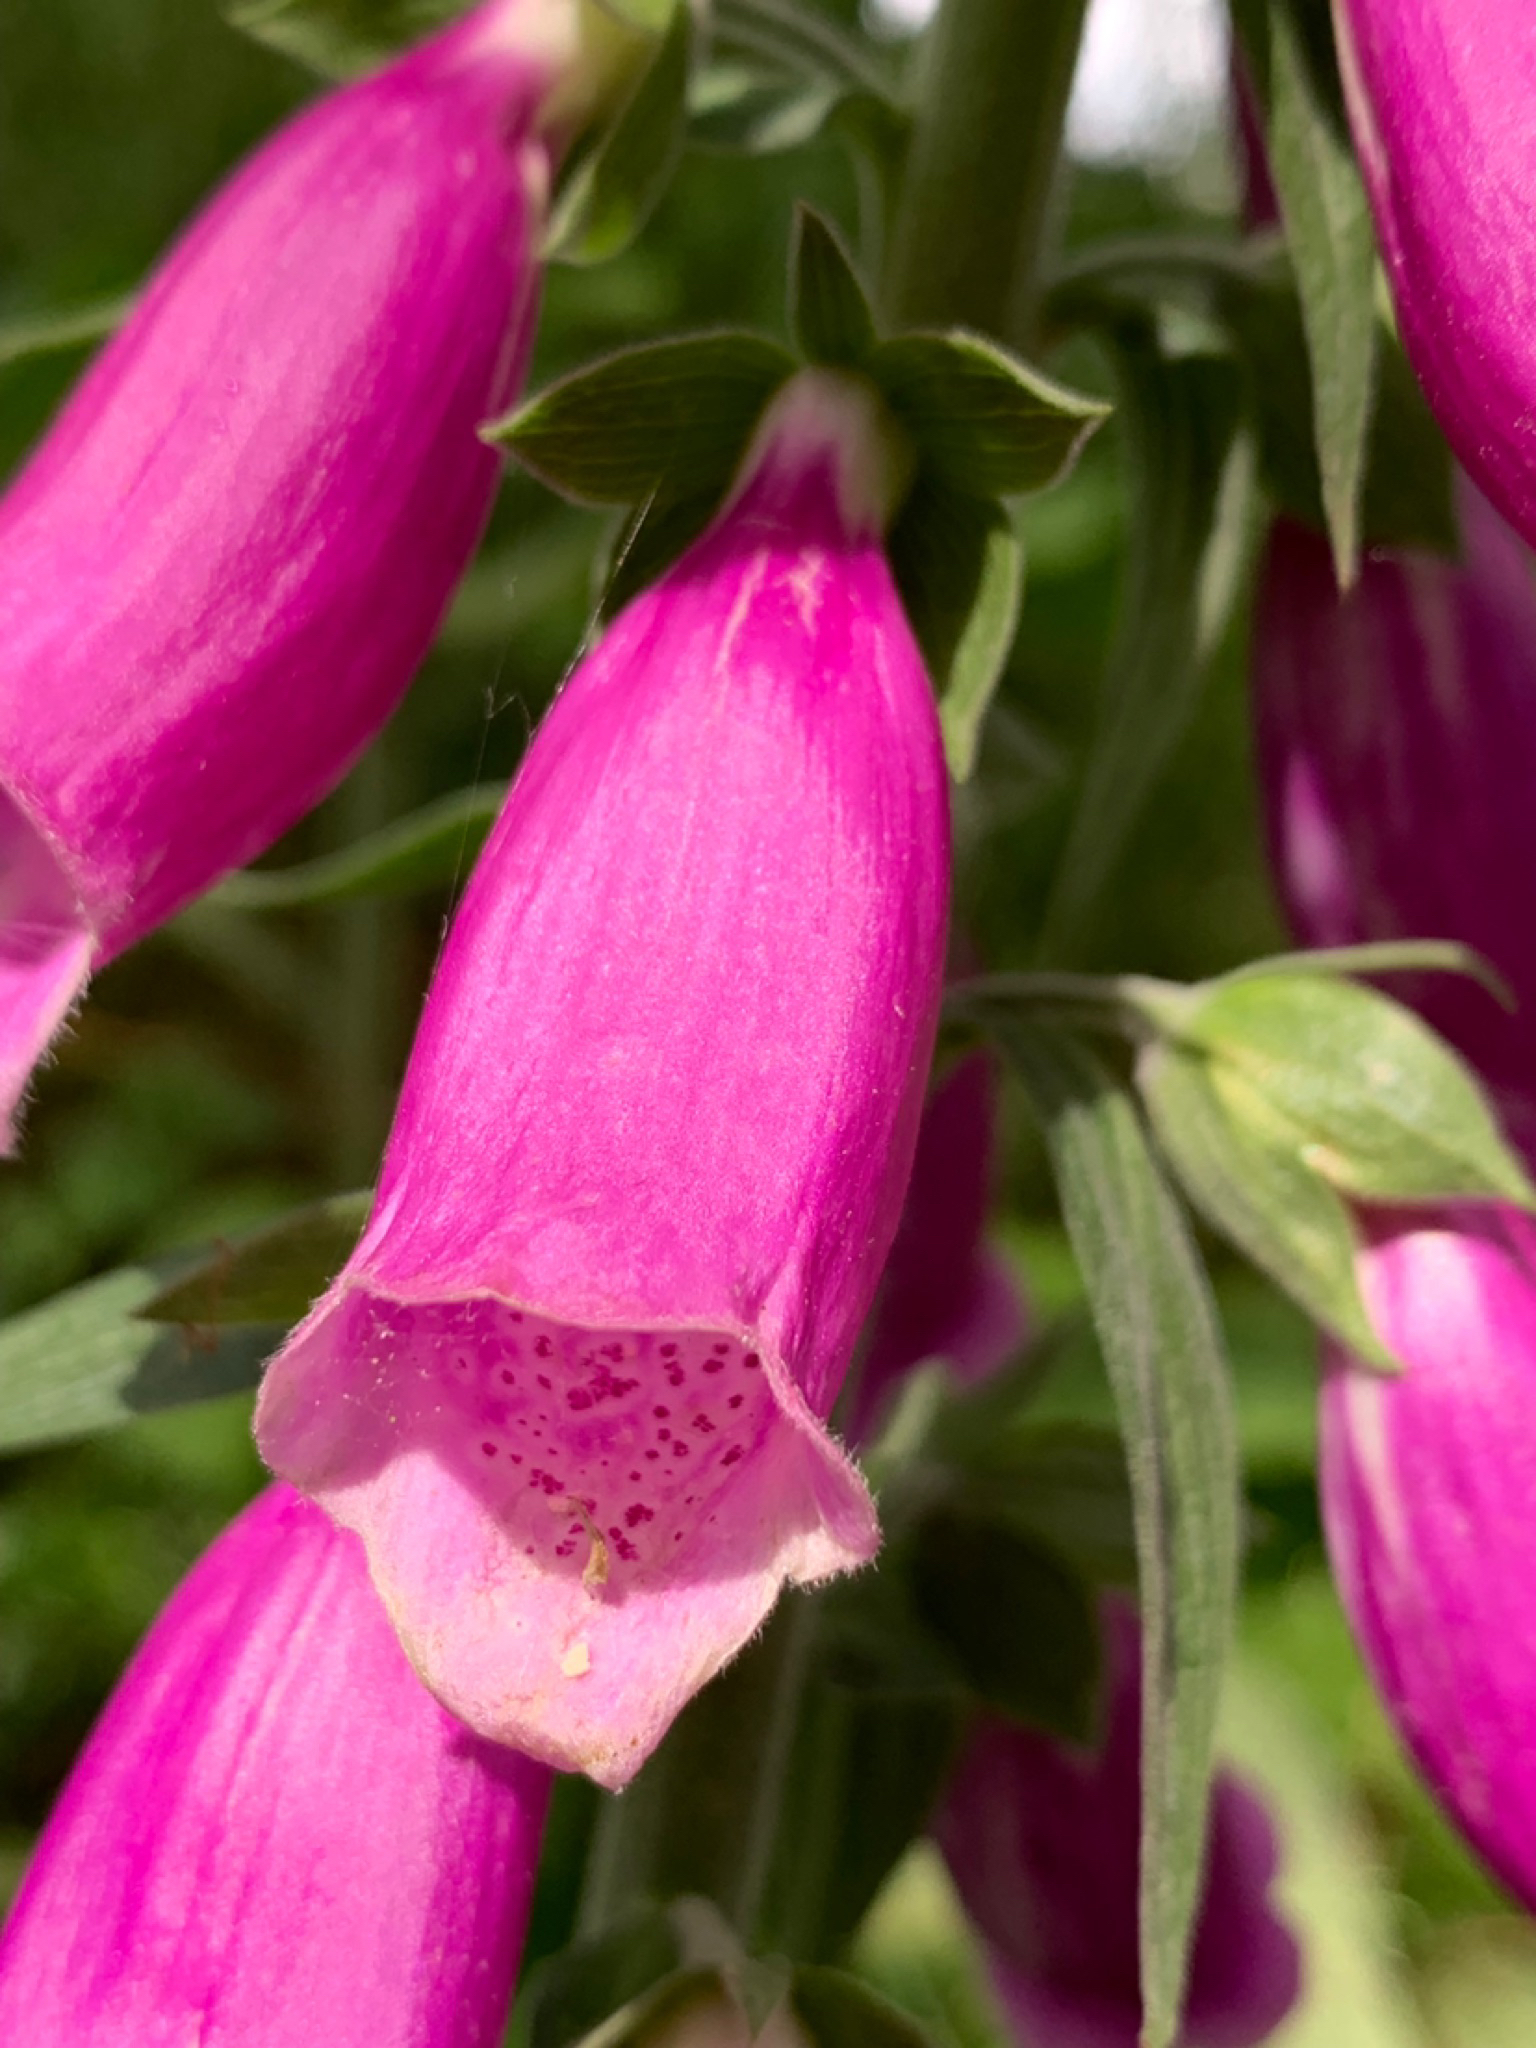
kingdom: Plantae
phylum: Tracheophyta
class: Magnoliopsida
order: Lamiales
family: Plantaginaceae
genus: Digitalis
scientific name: Digitalis purpurea
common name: Foxglove
